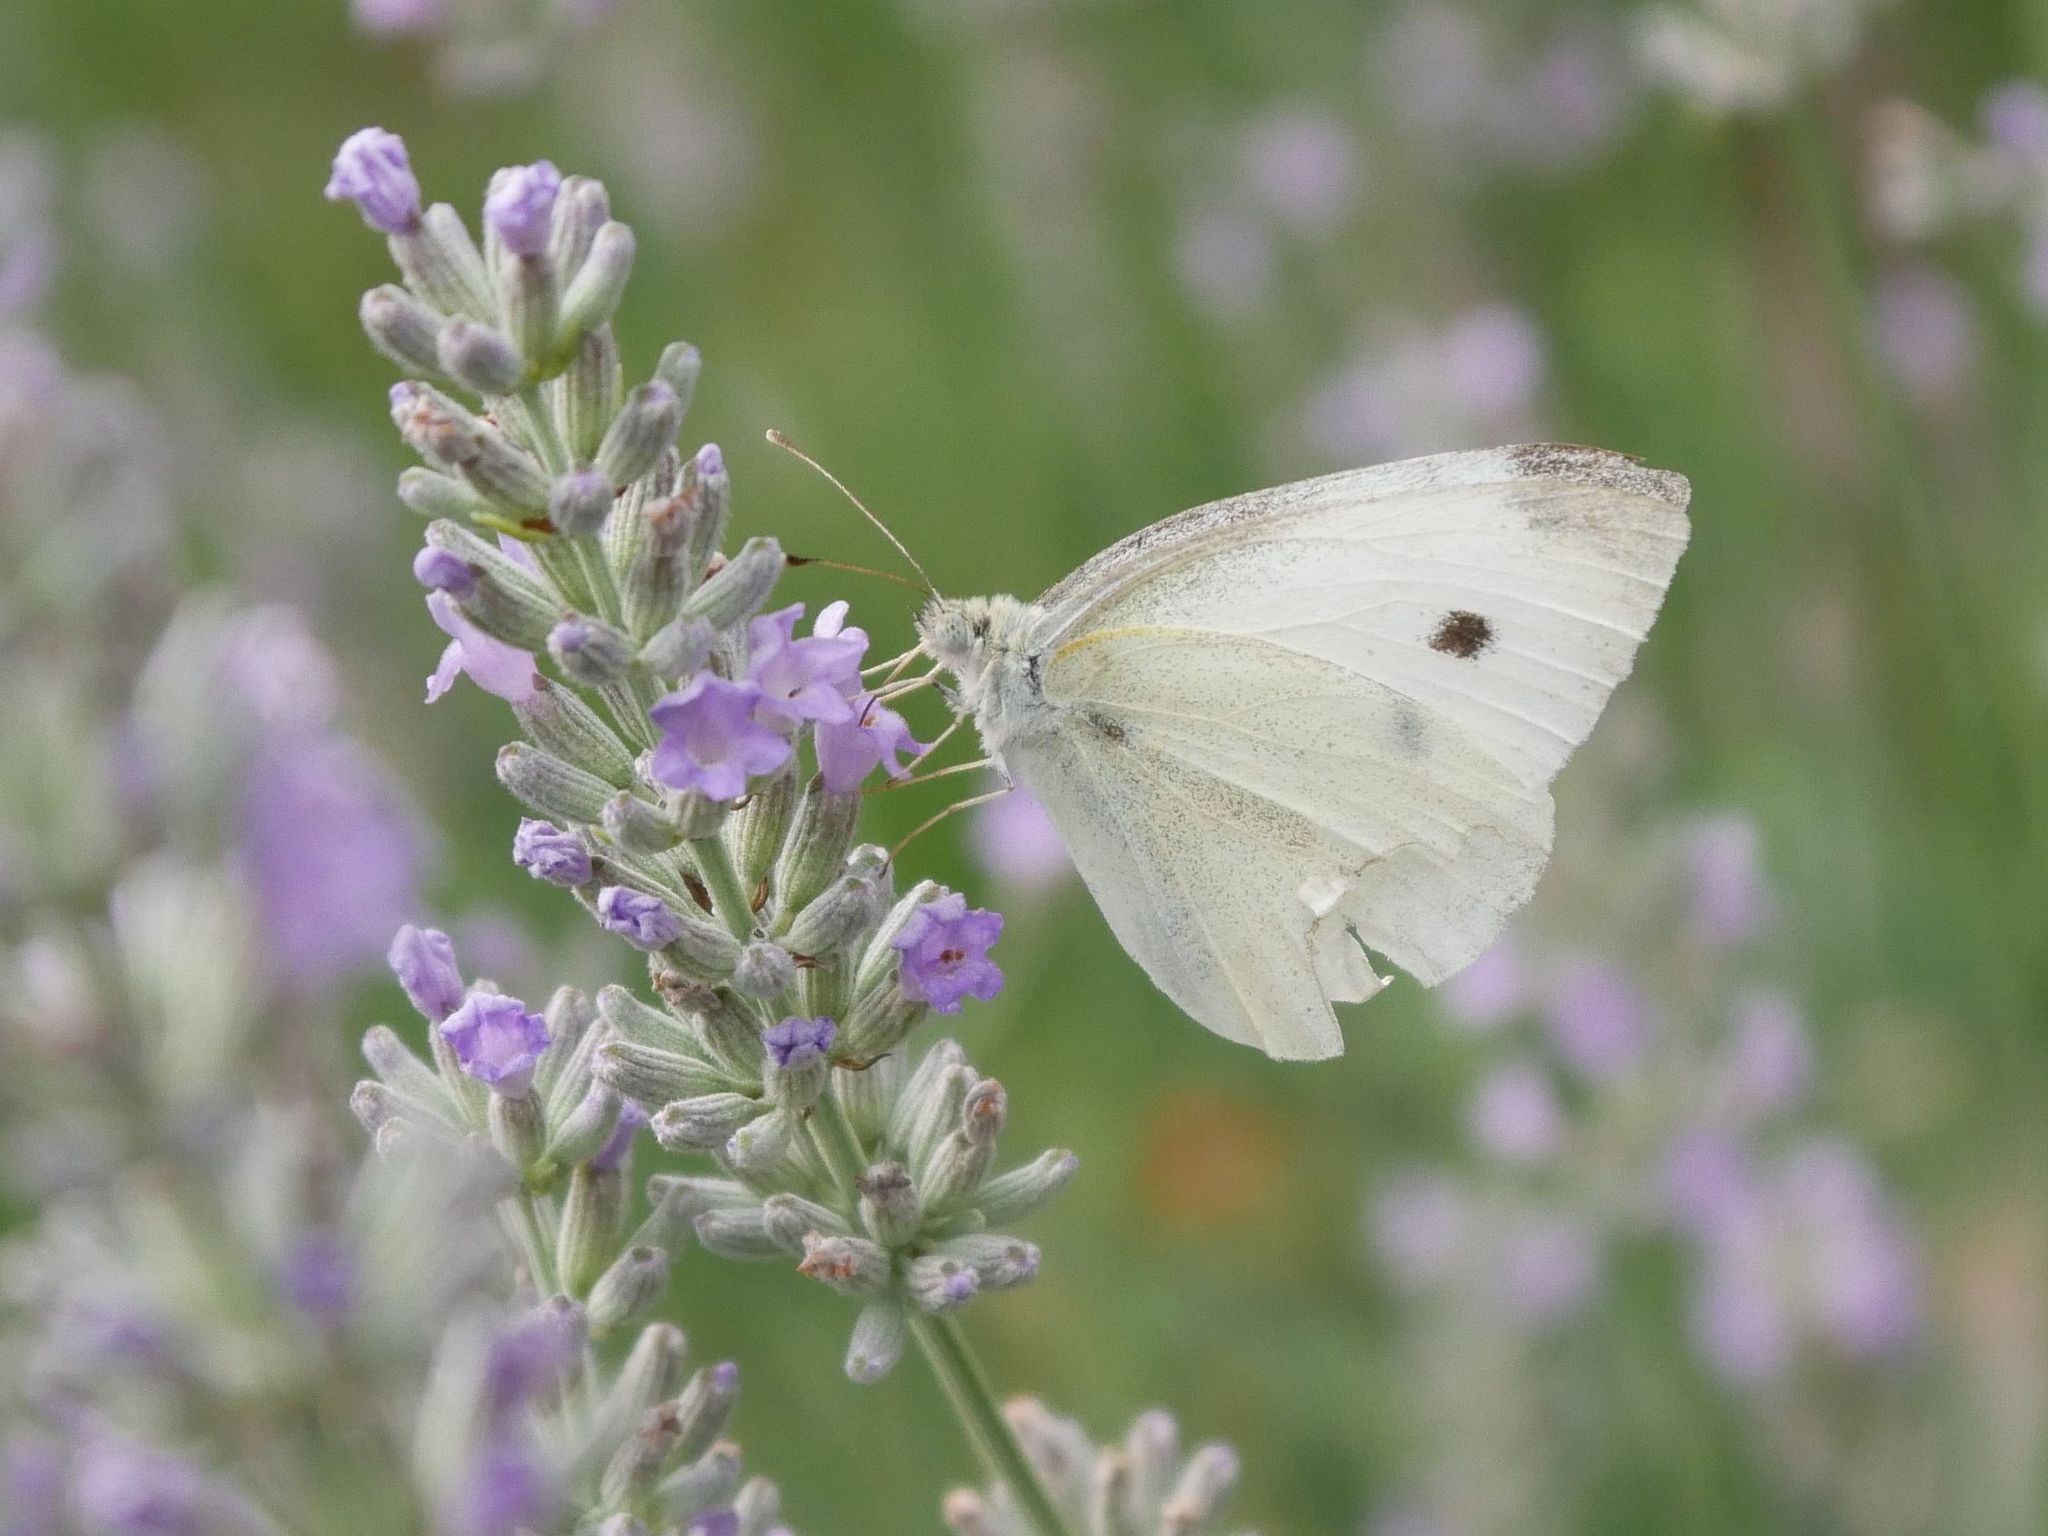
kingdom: Animalia
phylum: Arthropoda
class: Insecta
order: Lepidoptera
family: Pieridae
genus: Pieris
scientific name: Pieris rapae
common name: Small white
